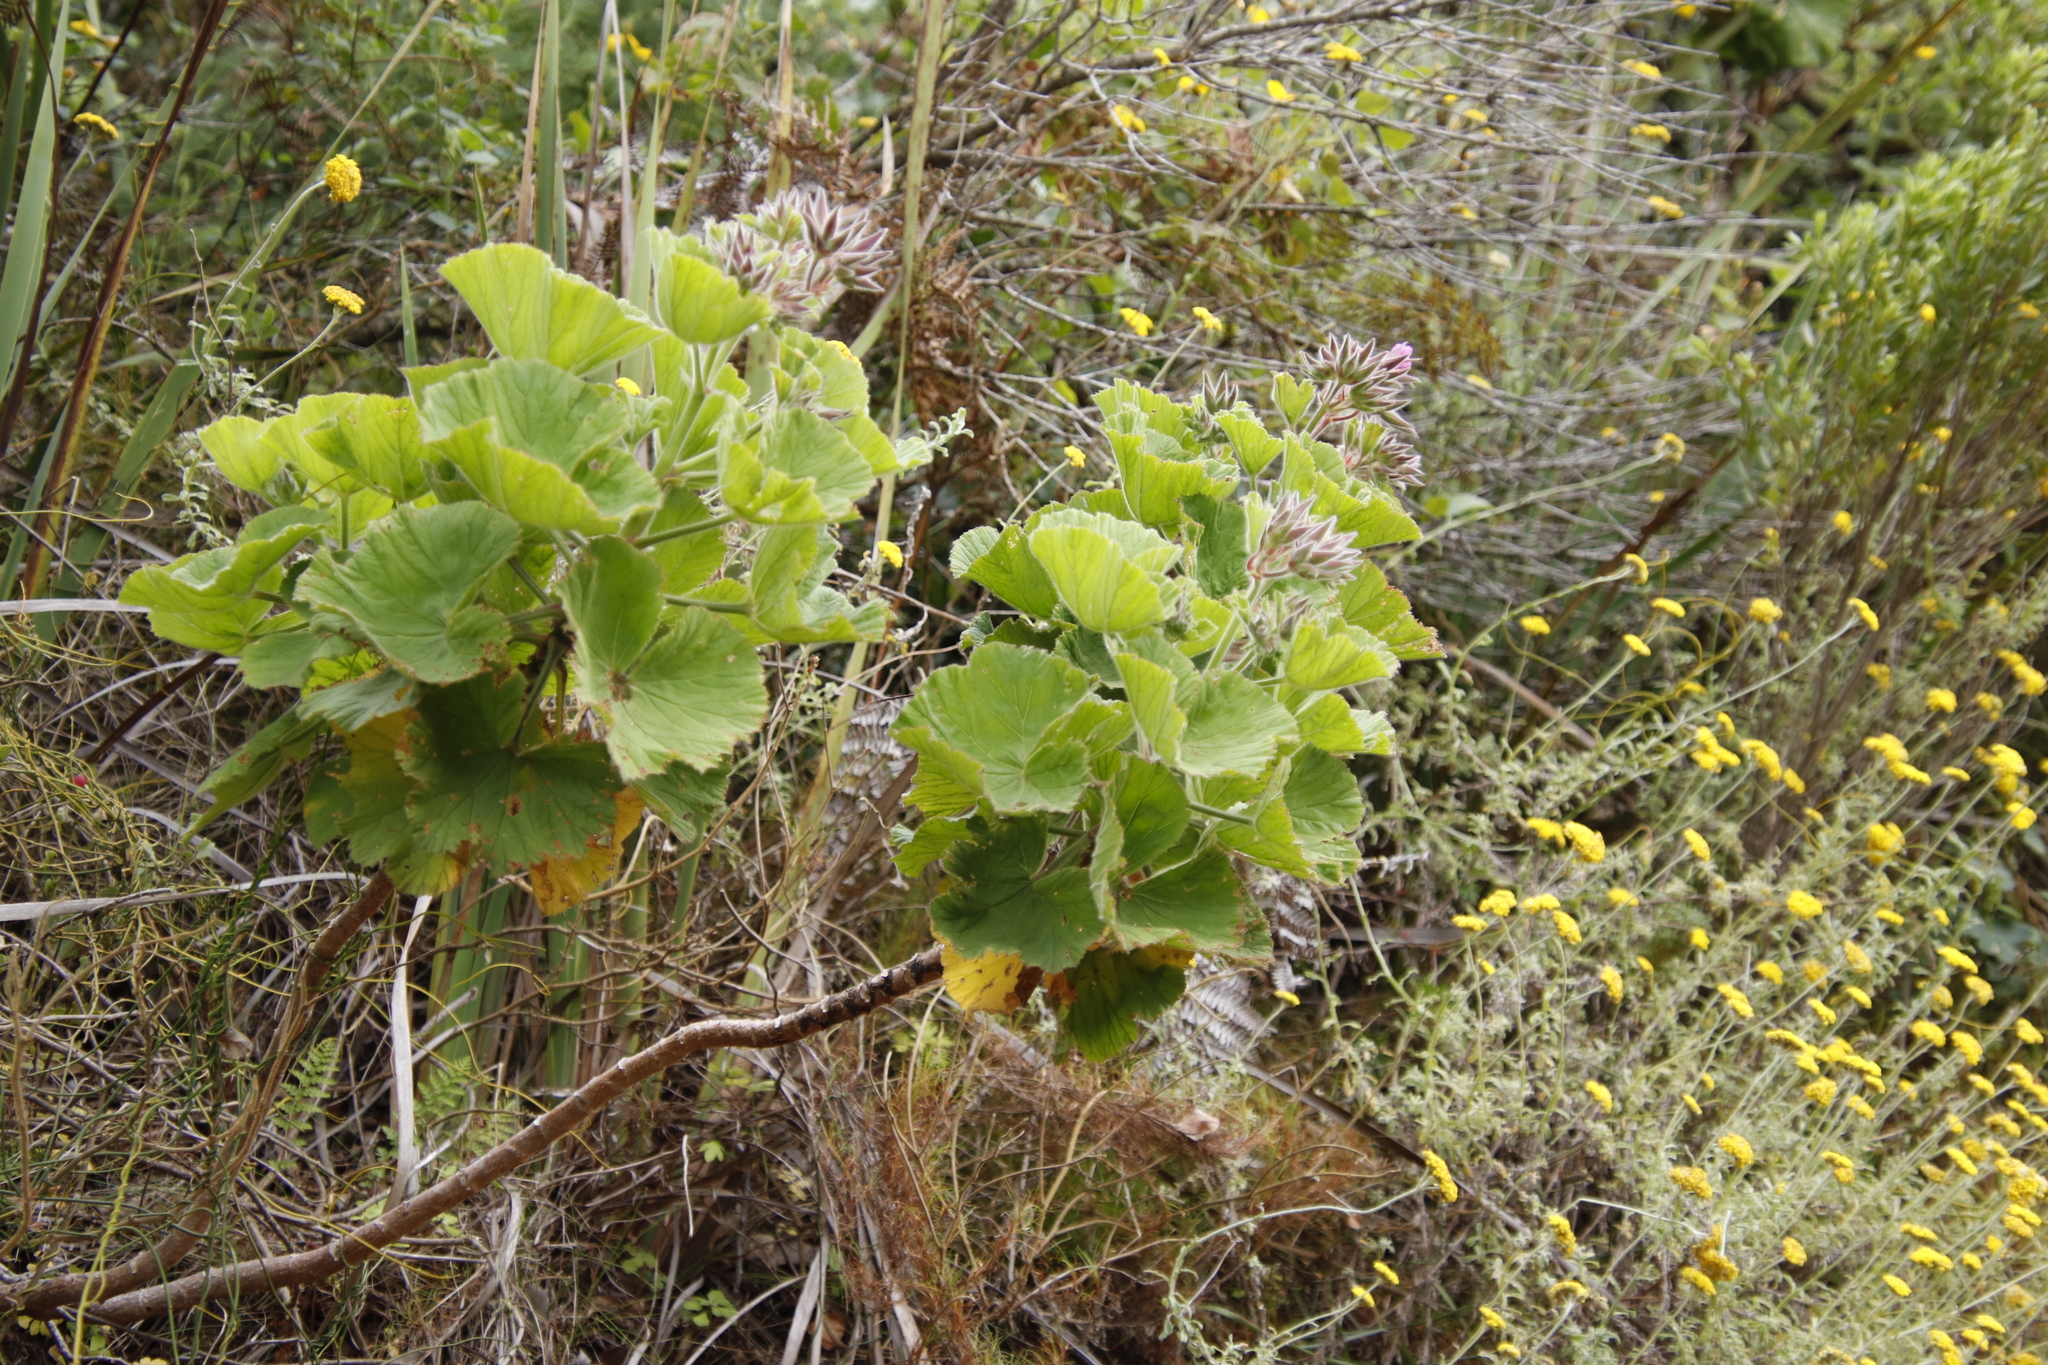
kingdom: Plantae
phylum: Tracheophyta
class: Magnoliopsida
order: Geraniales
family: Geraniaceae
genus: Pelargonium
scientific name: Pelargonium cucullatum
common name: Tree pelargonium
